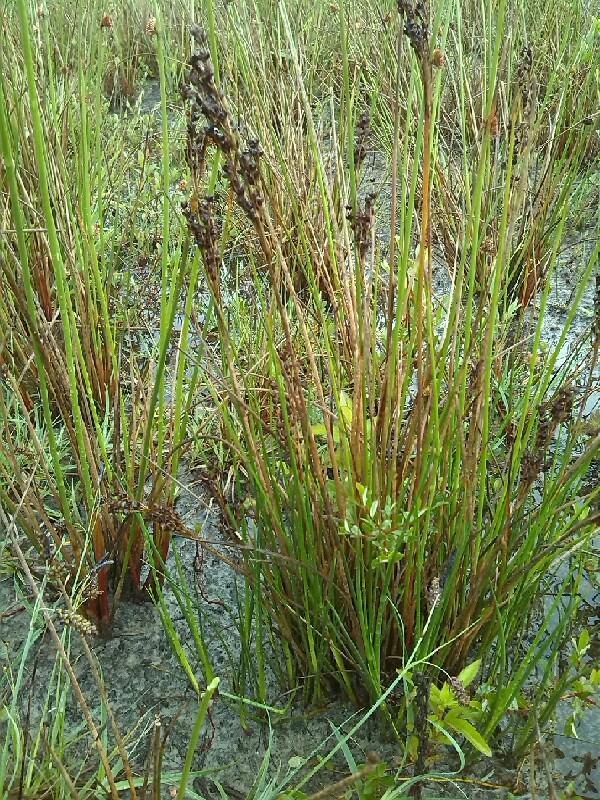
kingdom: Plantae
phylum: Tracheophyta
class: Liliopsida
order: Poales
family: Juncaceae
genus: Juncus
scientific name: Juncus anceps
